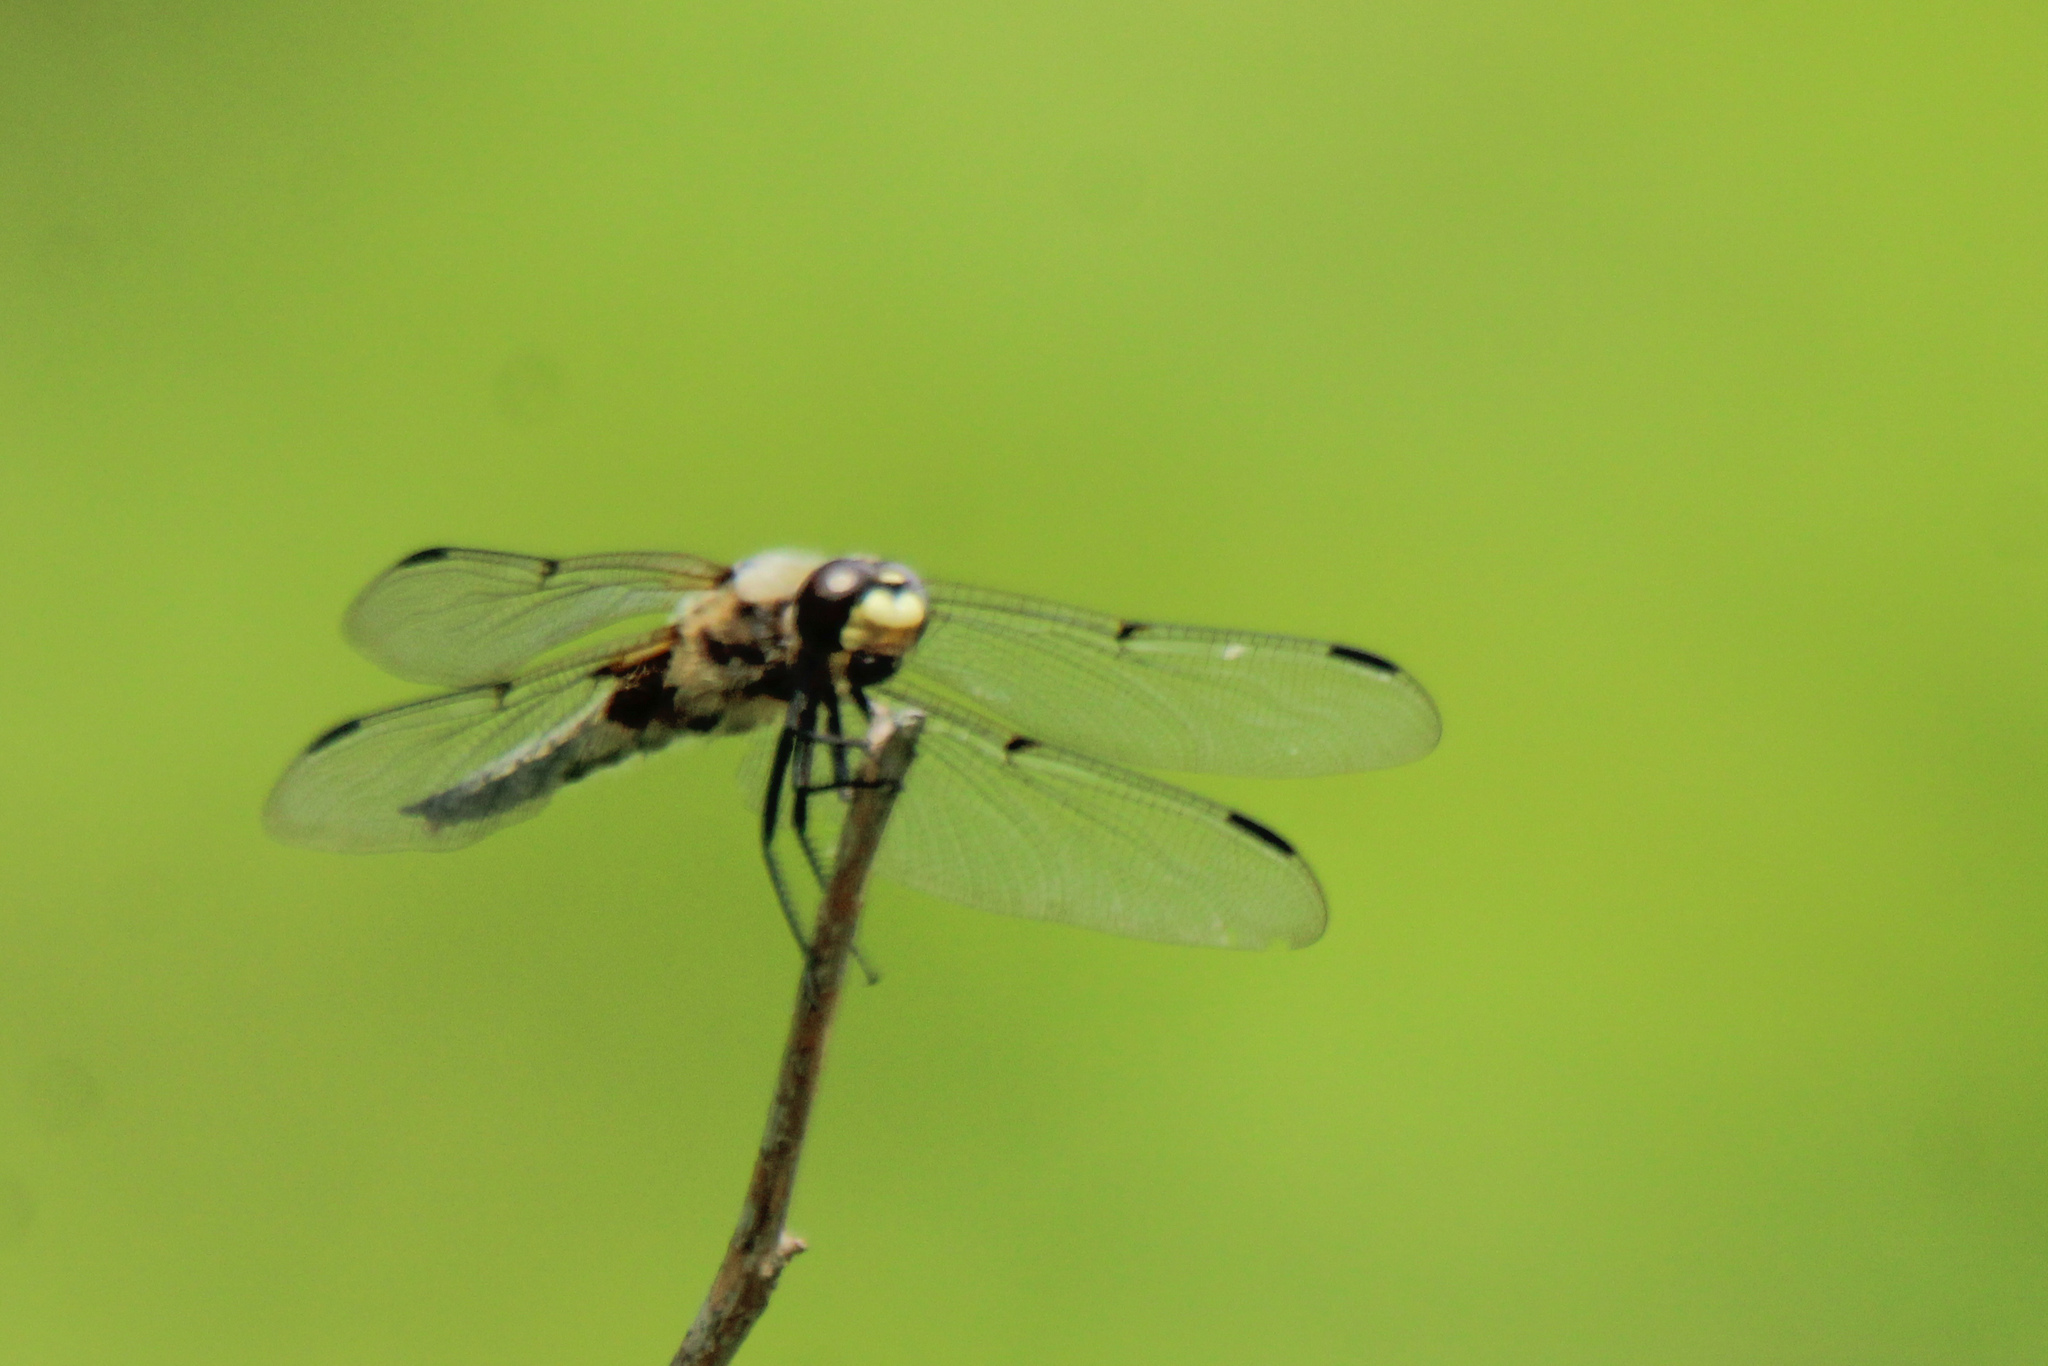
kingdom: Animalia
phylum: Arthropoda
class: Insecta
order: Odonata
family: Libellulidae
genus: Libellula
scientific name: Libellula quadrimaculata
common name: Four-spotted chaser
